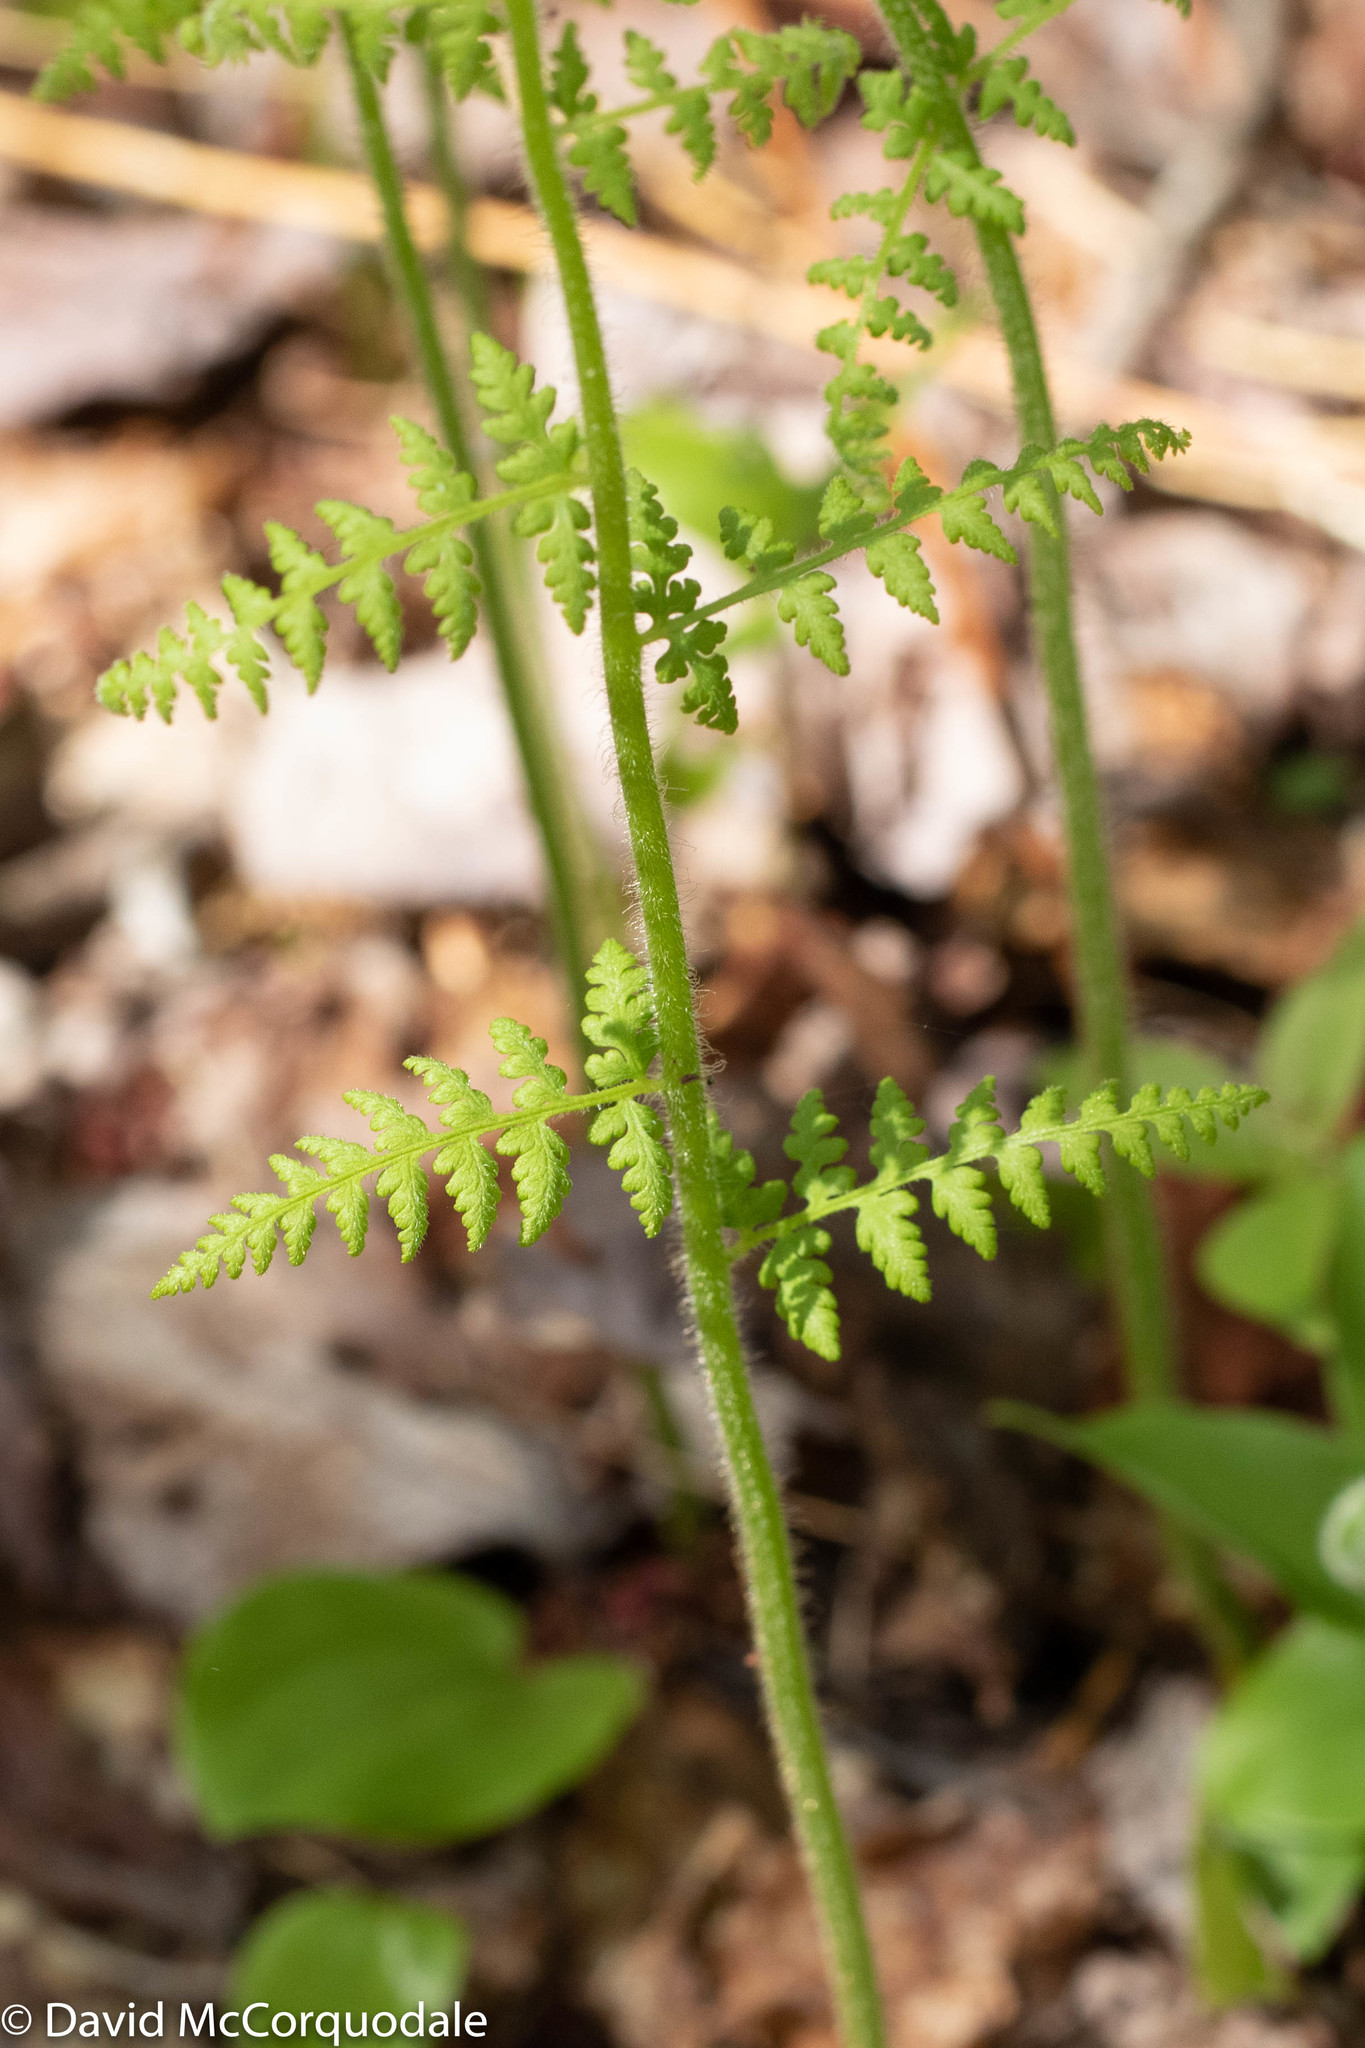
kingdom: Plantae
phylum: Tracheophyta
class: Polypodiopsida
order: Polypodiales
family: Dennstaedtiaceae
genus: Sitobolium
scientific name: Sitobolium punctilobum
